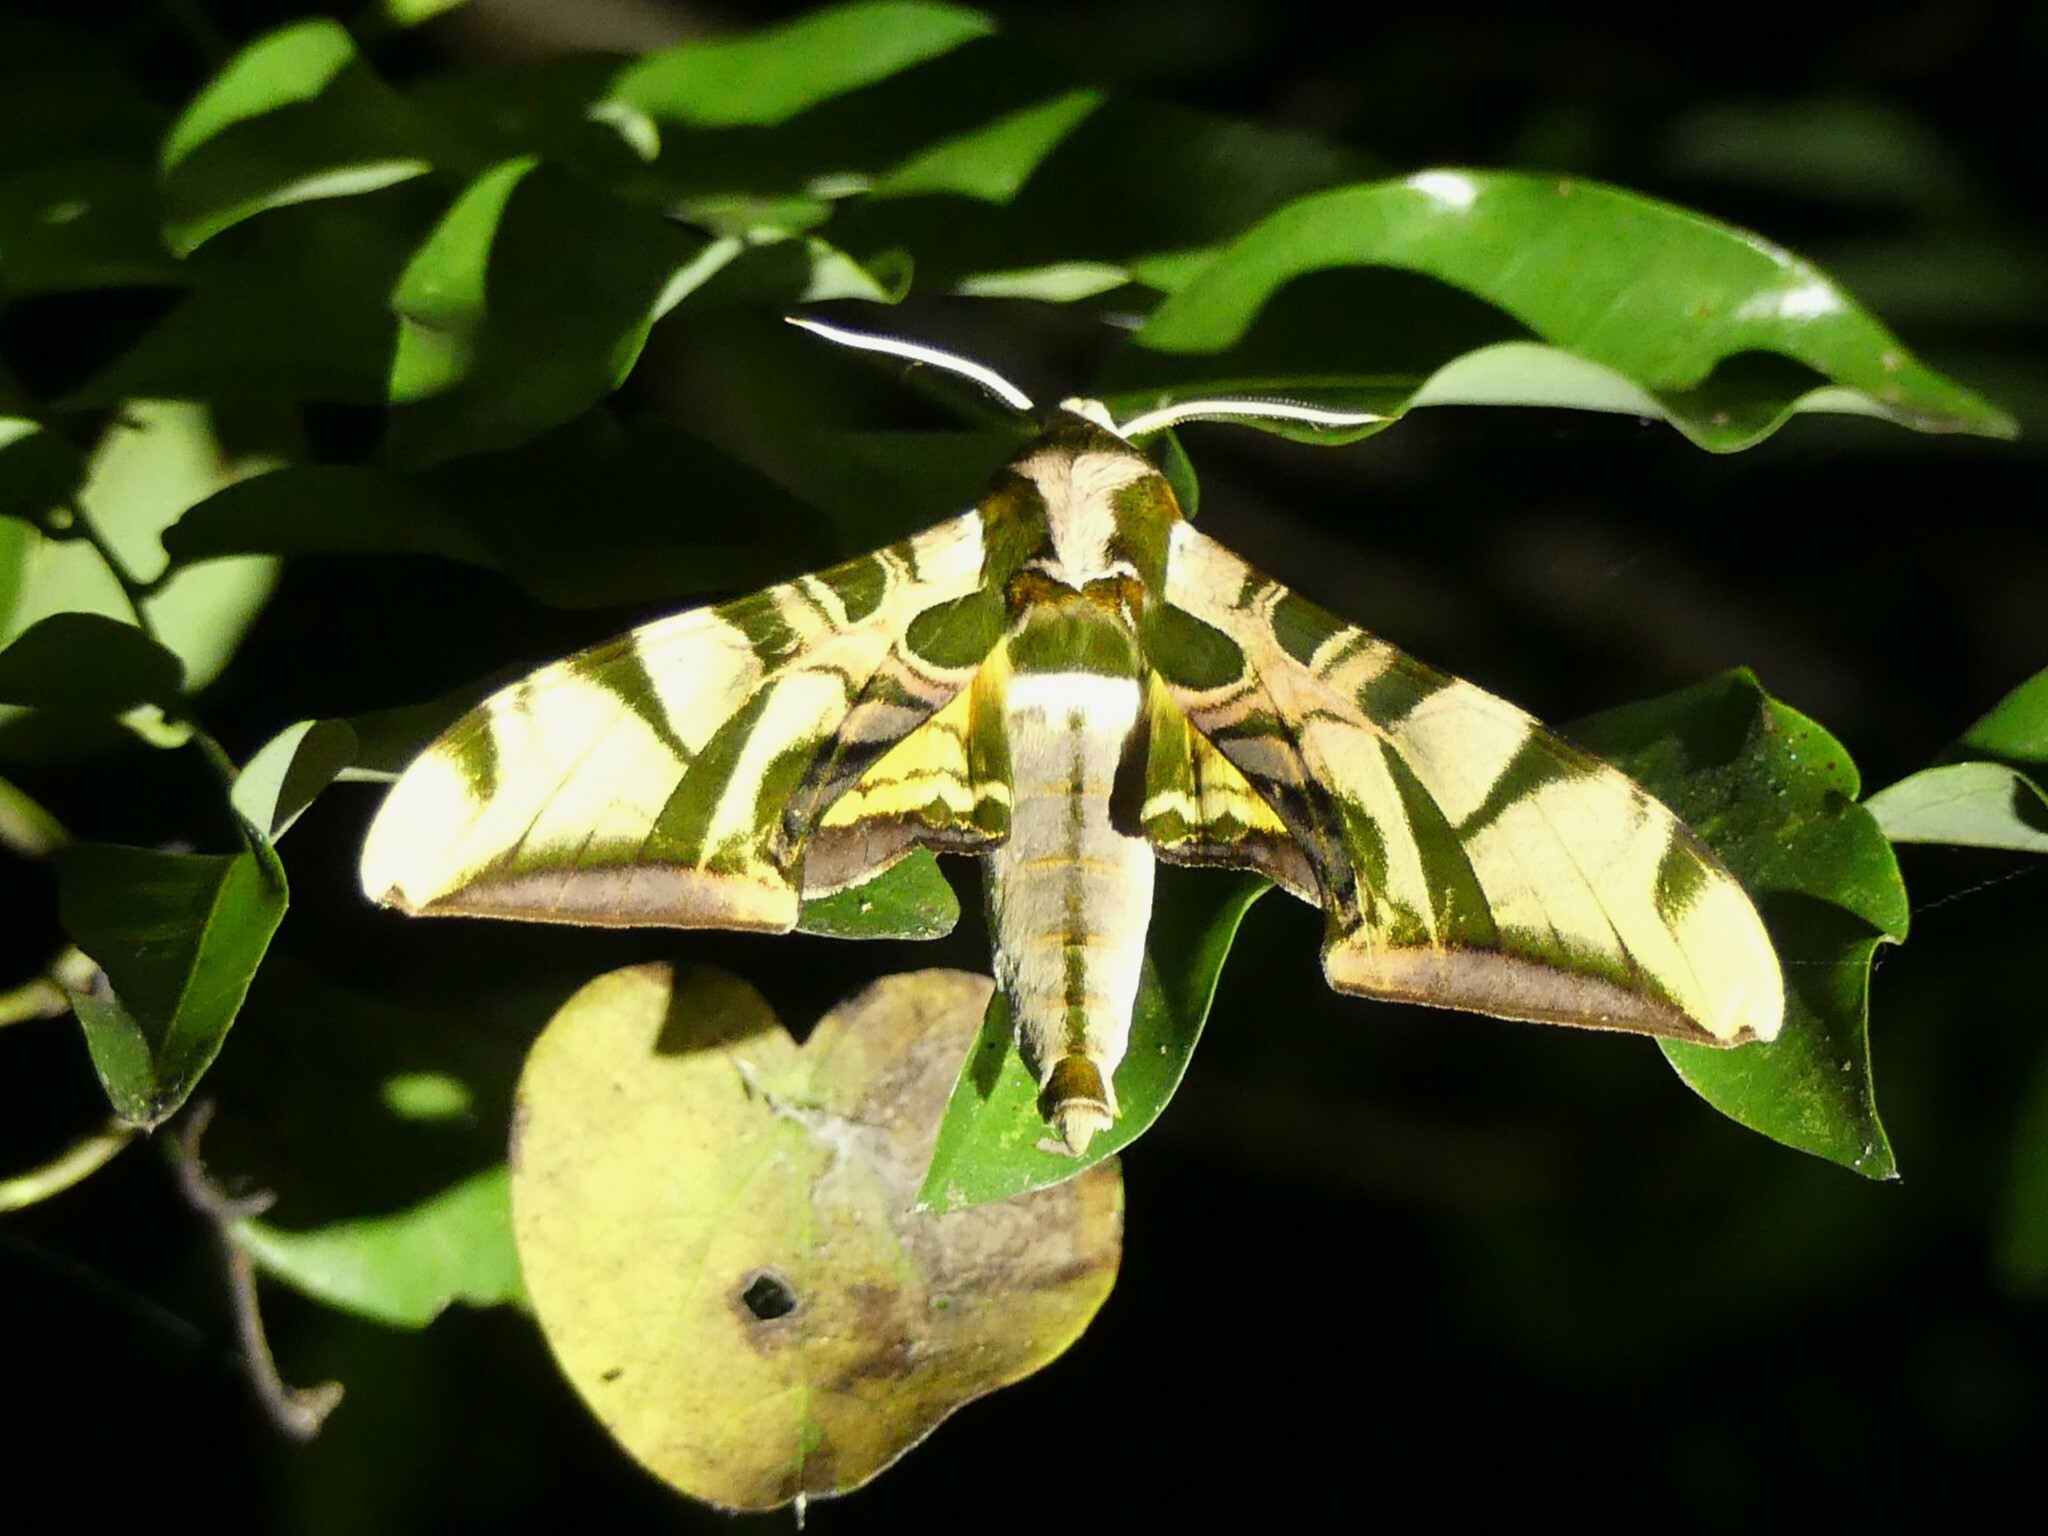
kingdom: Animalia
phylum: Arthropoda
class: Insecta
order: Lepidoptera
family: Sphingidae
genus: Batocnema
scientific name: Batocnema coquerelii
